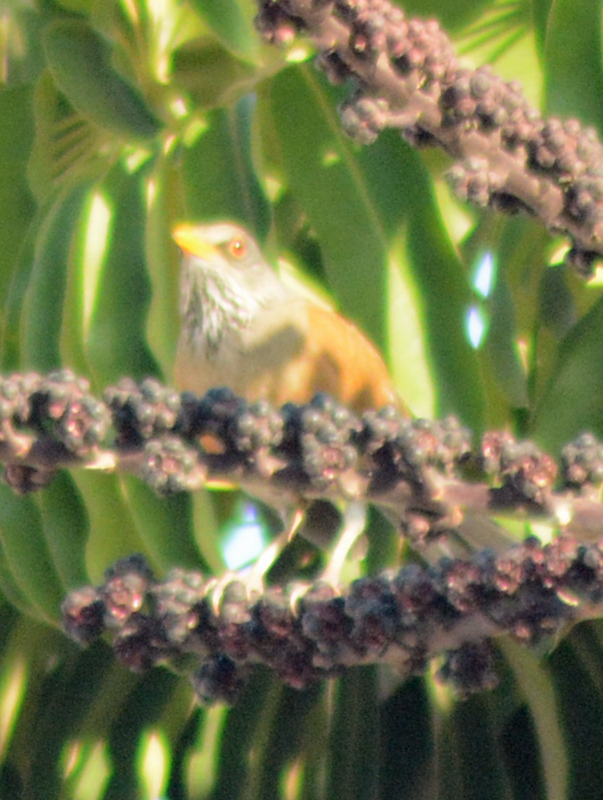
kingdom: Animalia
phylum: Chordata
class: Aves
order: Passeriformes
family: Turdidae
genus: Turdus
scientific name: Turdus rufopalliatus
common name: Rufous-backed robin
